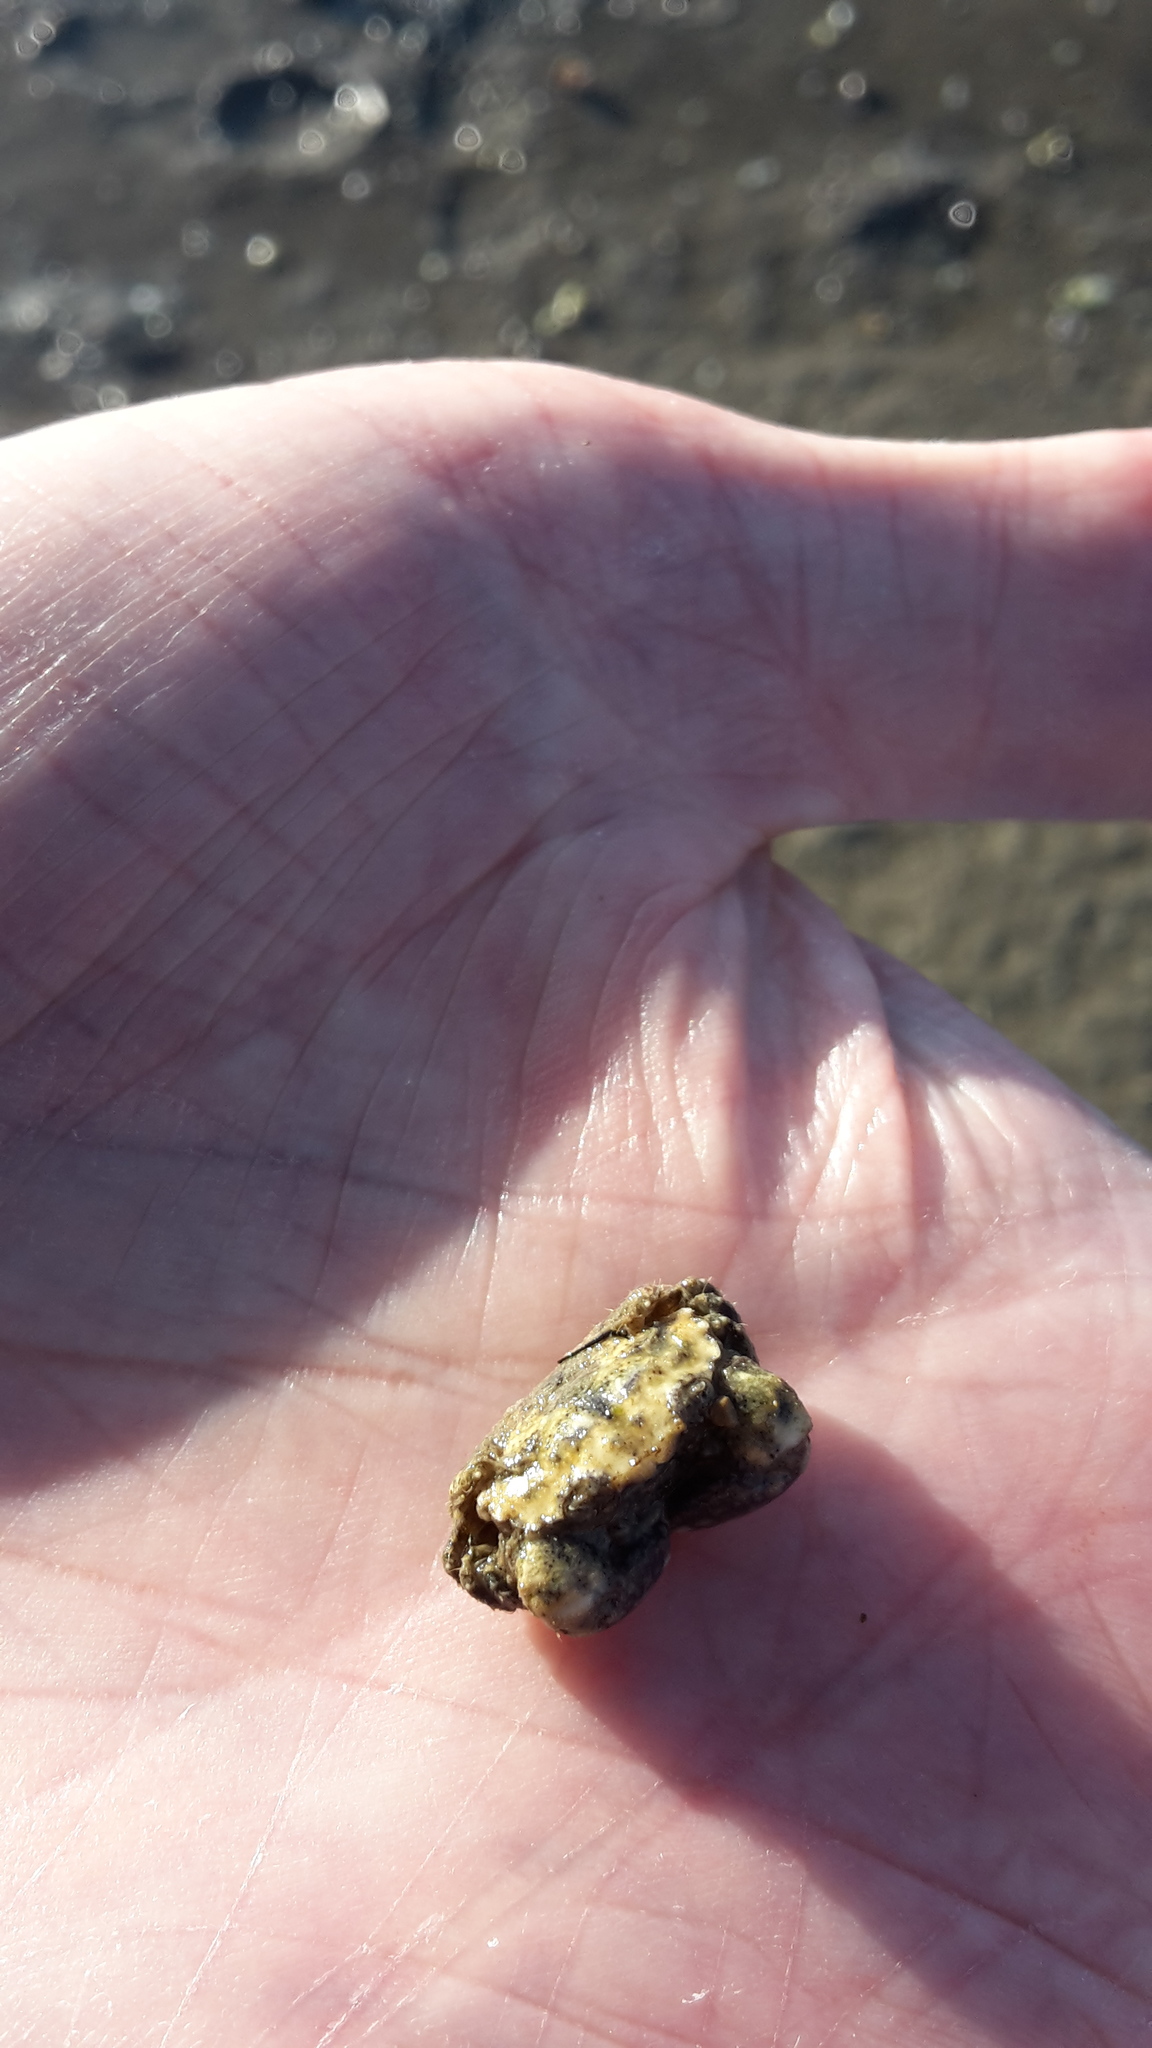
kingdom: Animalia
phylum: Arthropoda
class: Malacostraca
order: Decapoda
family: Pilumnidae
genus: Pilumnopeus
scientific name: Pilumnopeus serratifrons
